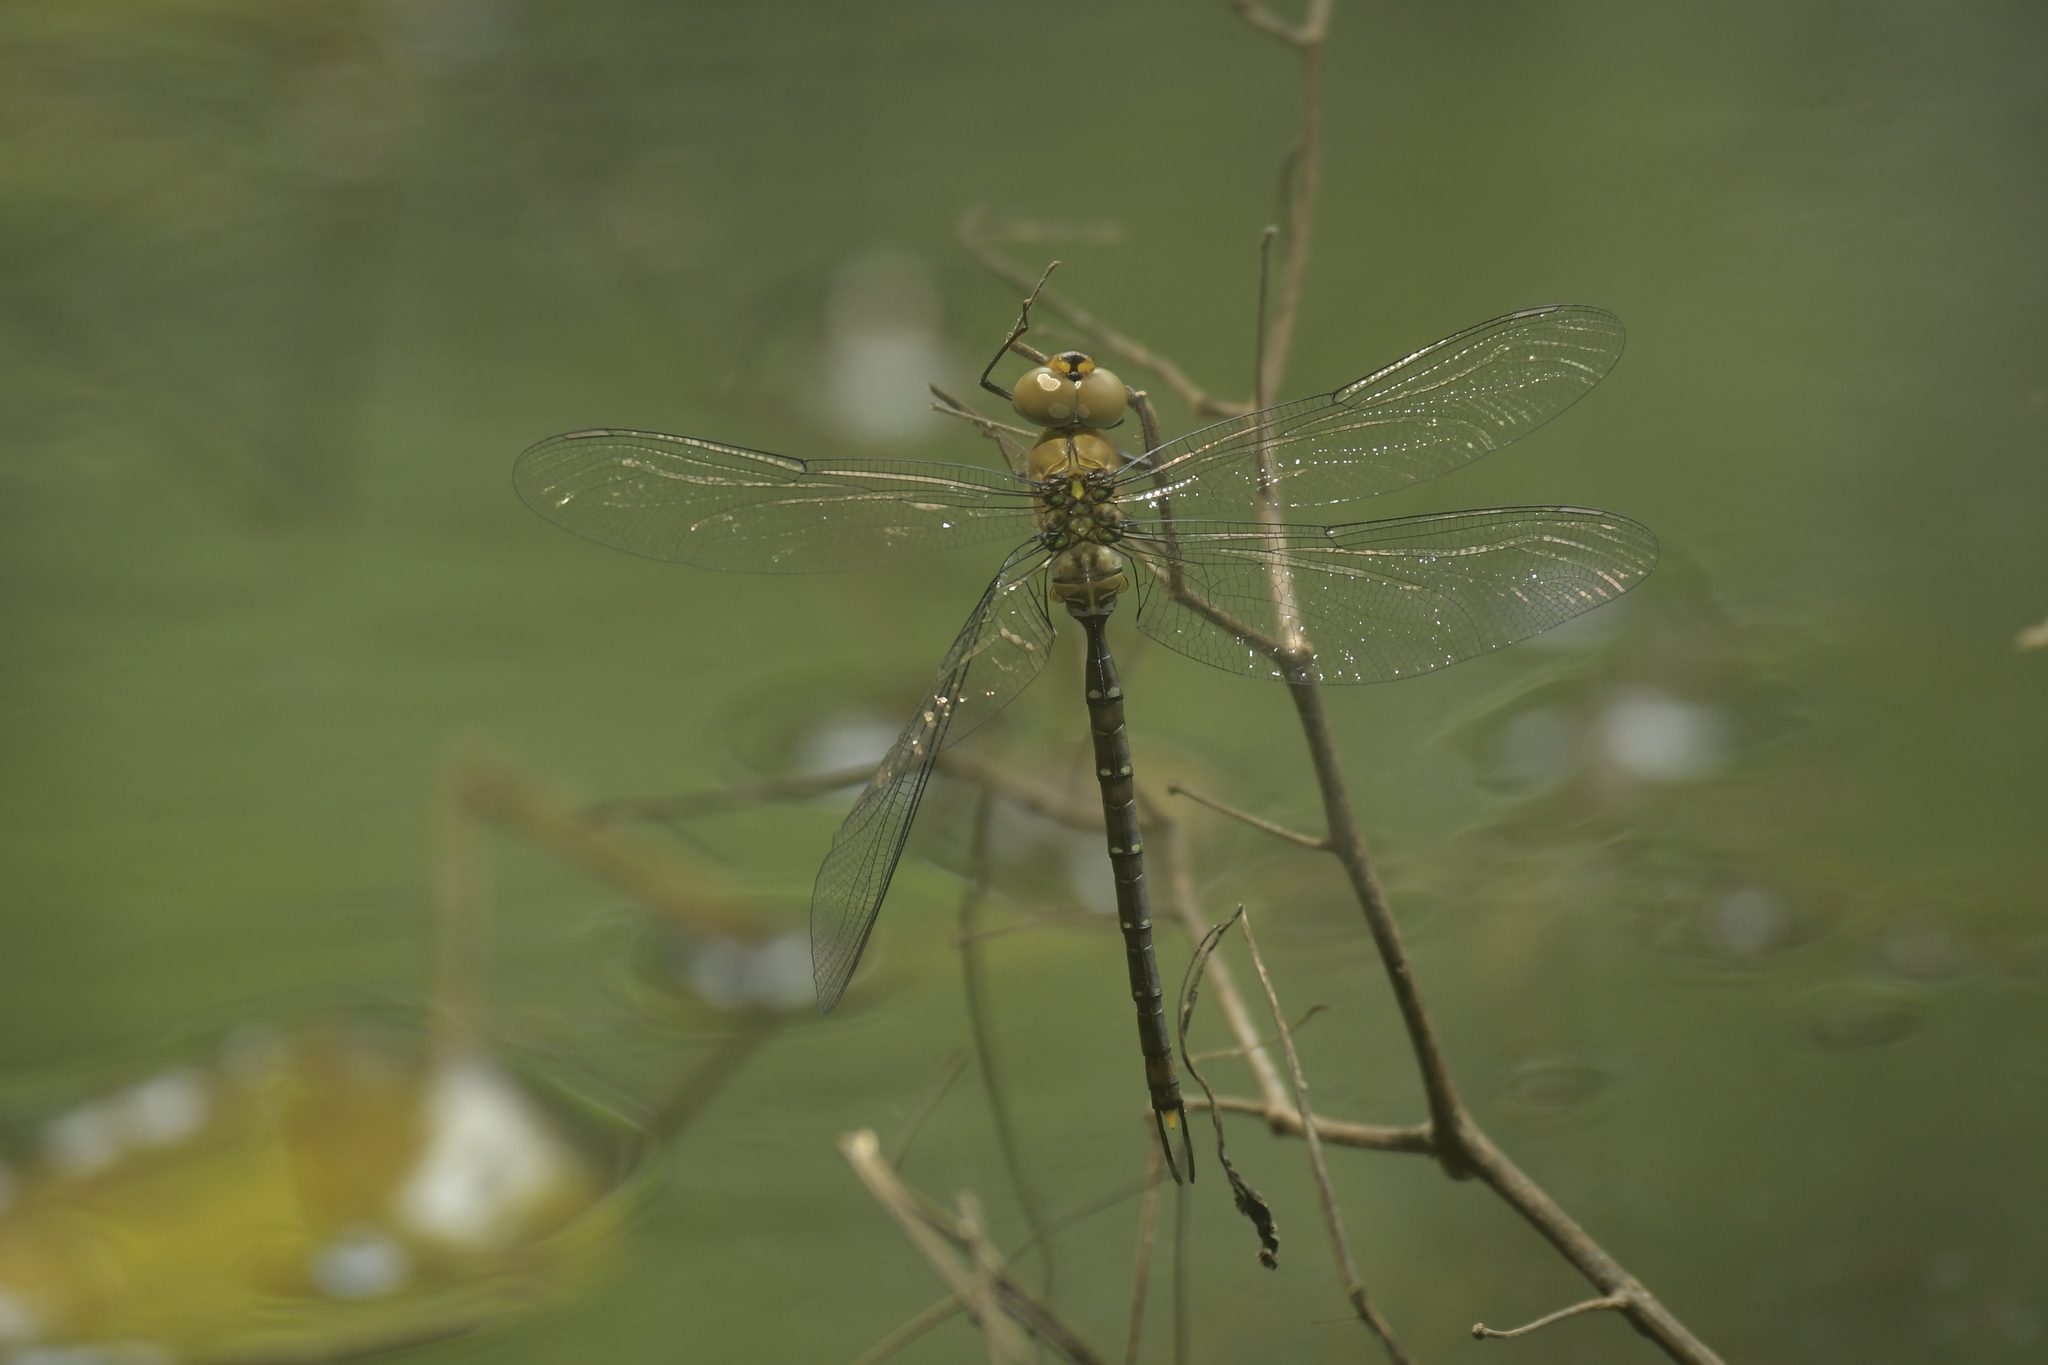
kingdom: Animalia
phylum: Arthropoda
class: Insecta
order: Odonata
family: Aeshnidae
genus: Gynacantha
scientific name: Gynacantha japonica
